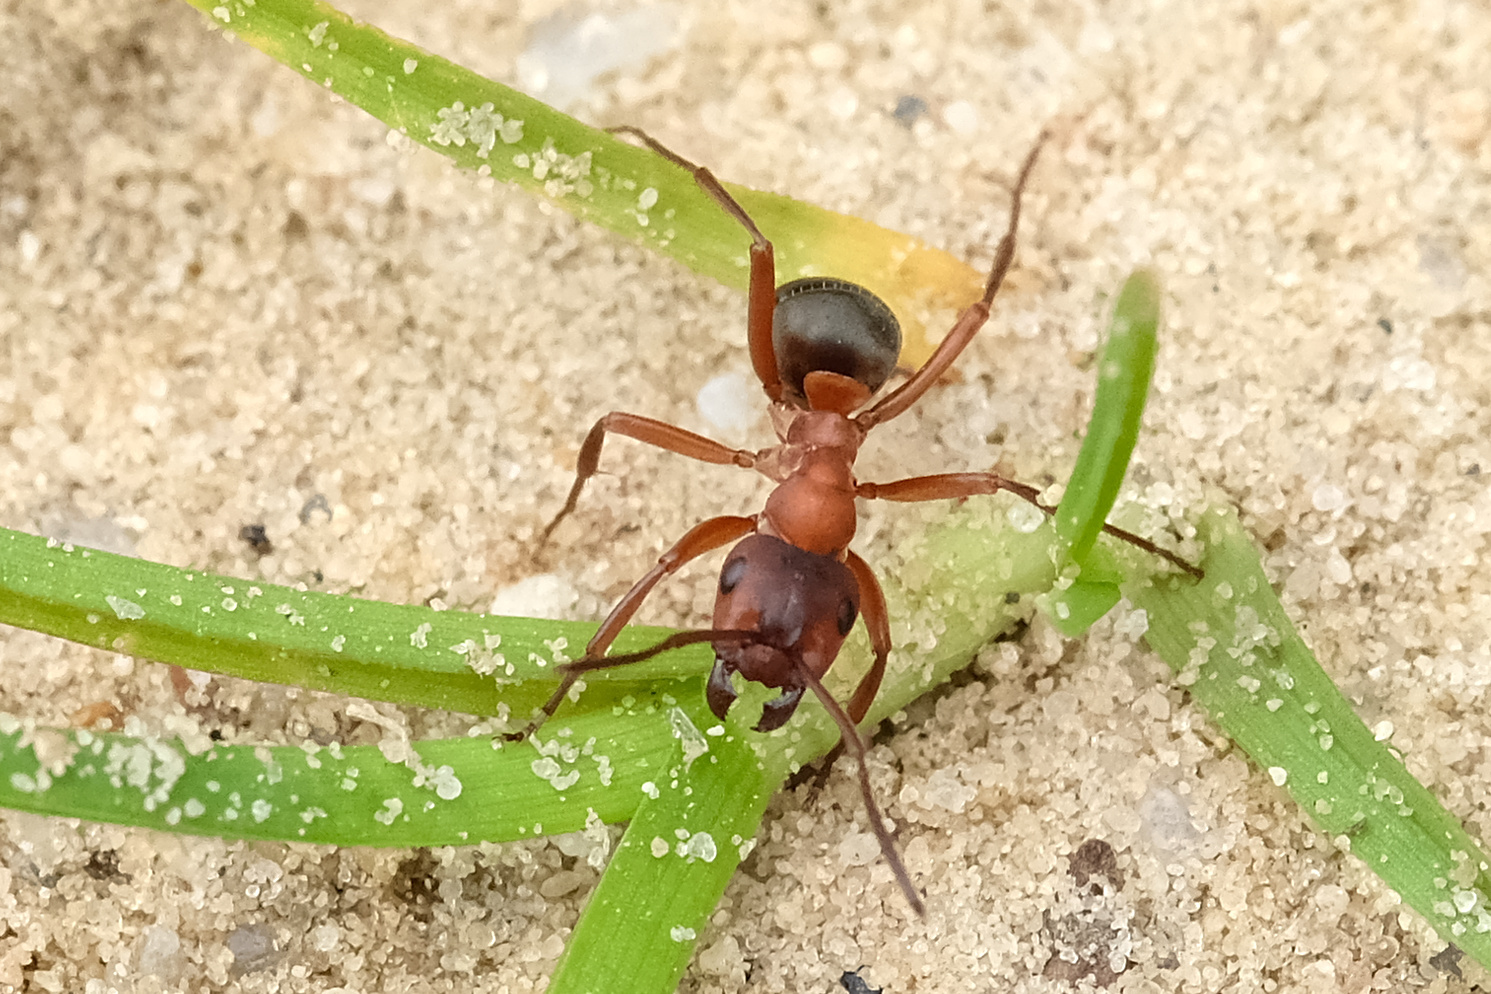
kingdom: Animalia
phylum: Arthropoda
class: Insecta
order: Hymenoptera
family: Formicidae
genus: Formica
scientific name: Formica sanguinea
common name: Blood-red ant
